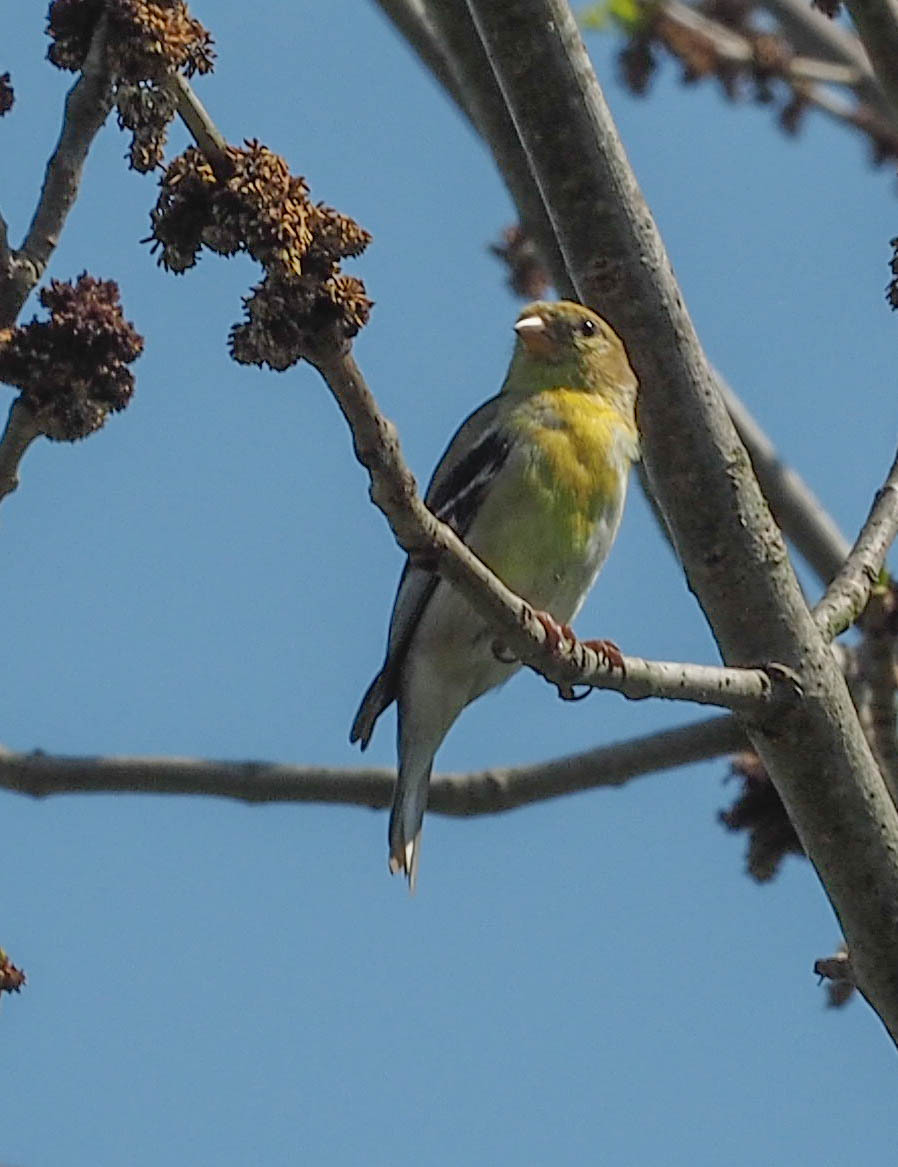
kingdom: Animalia
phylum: Chordata
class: Aves
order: Passeriformes
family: Fringillidae
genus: Spinus
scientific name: Spinus tristis
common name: American goldfinch
